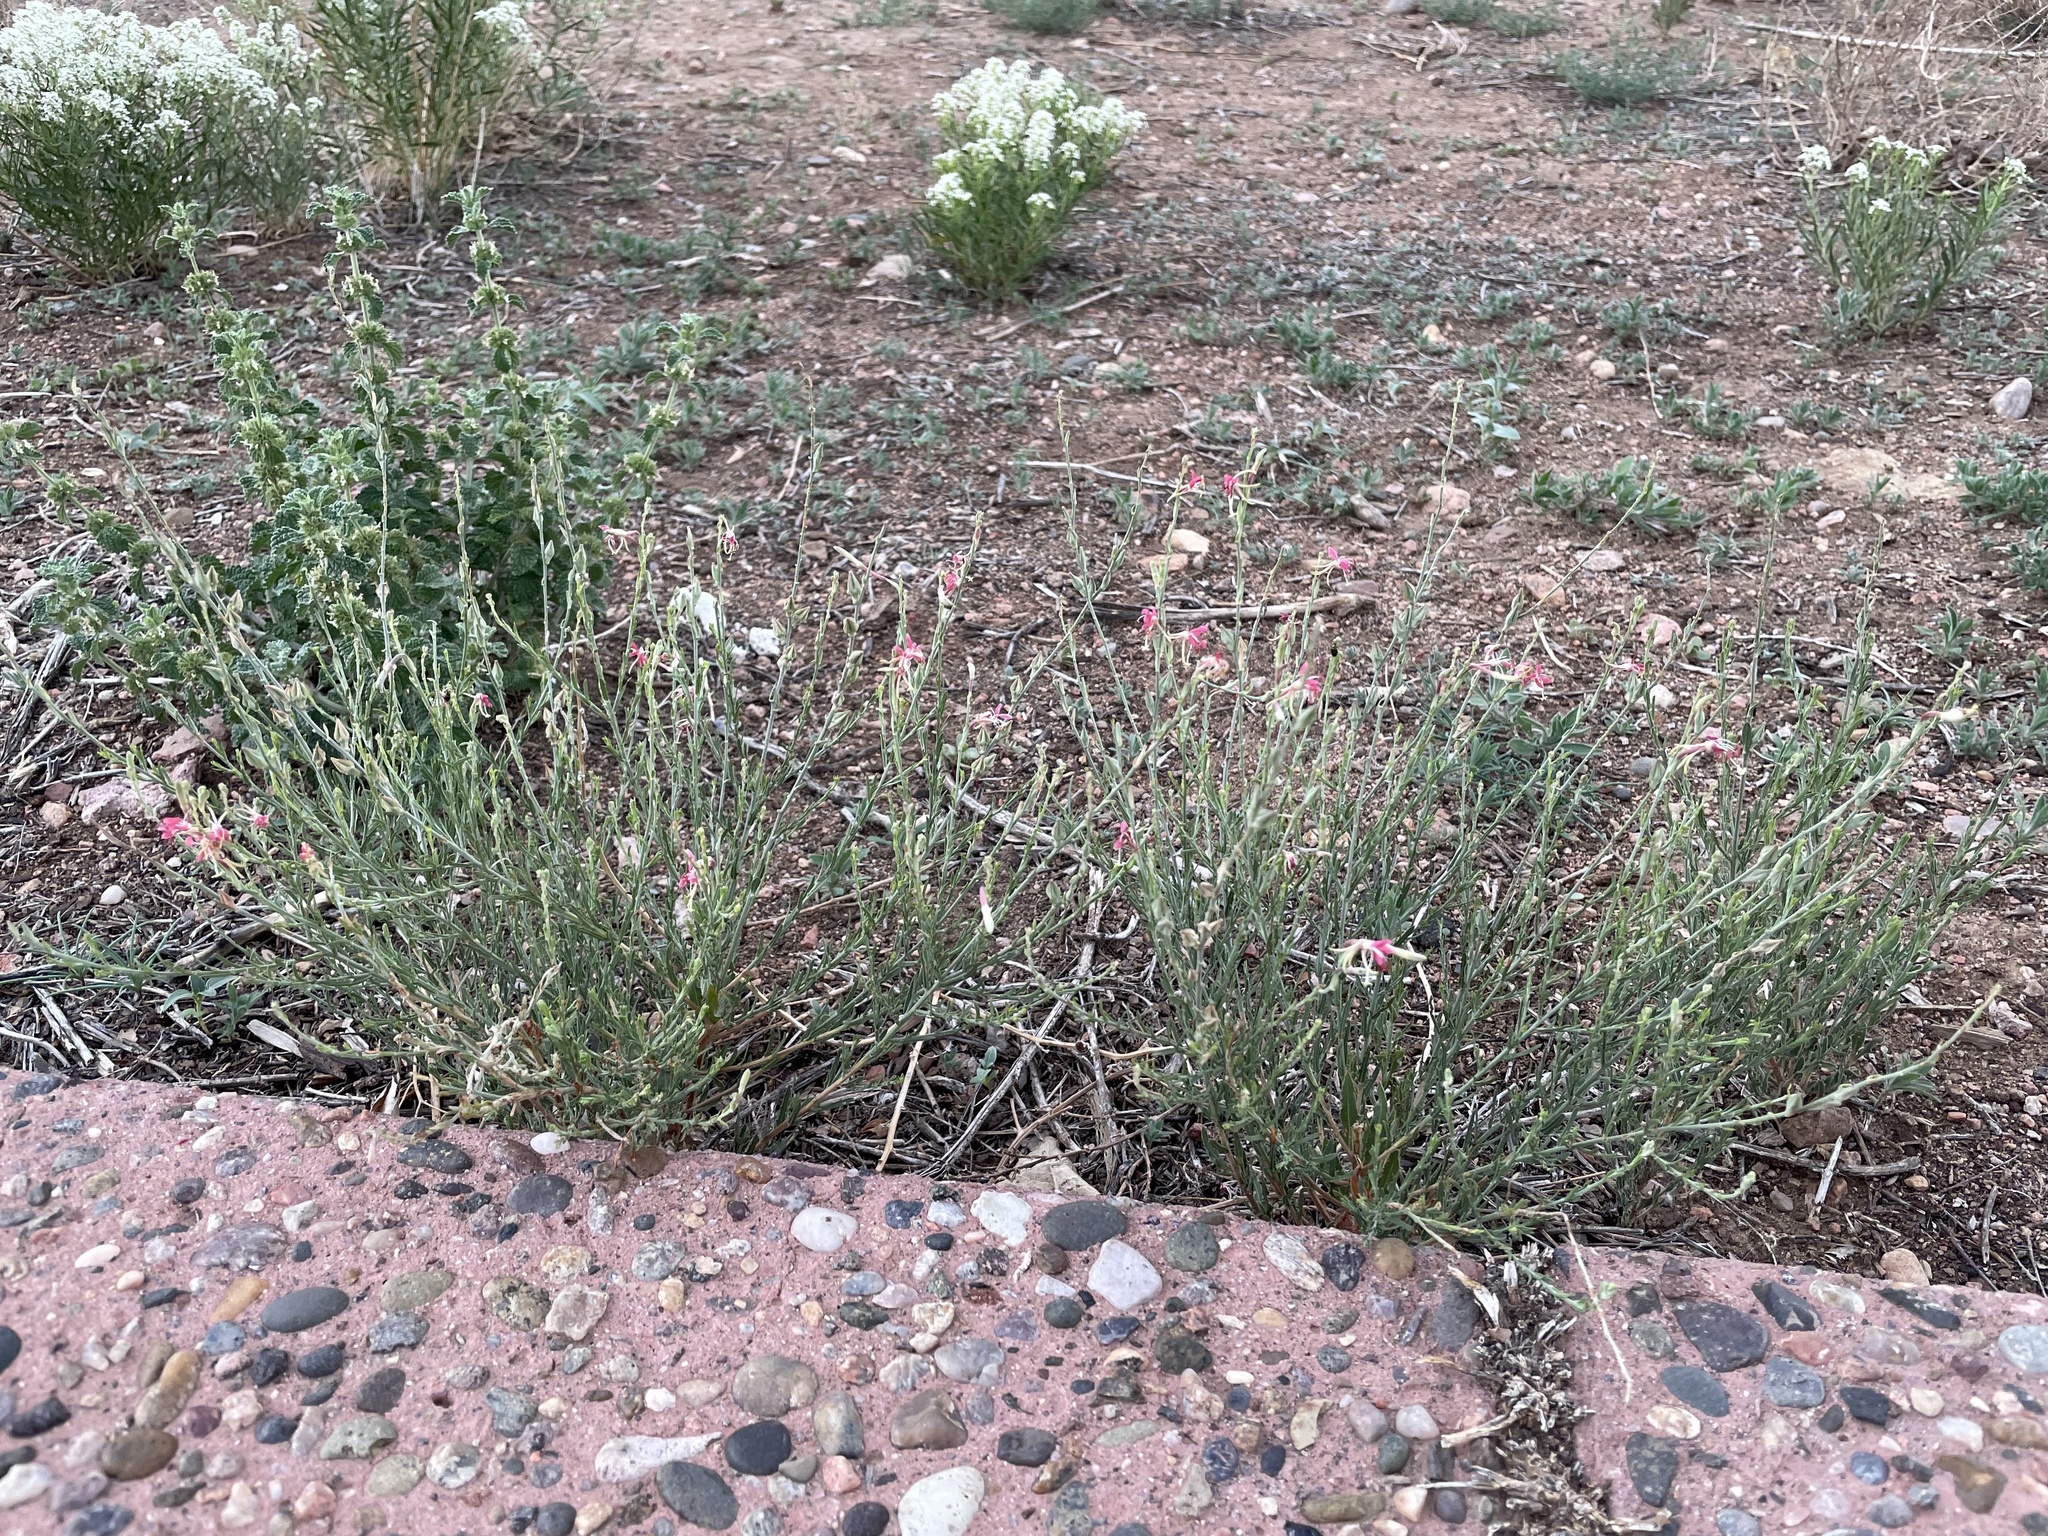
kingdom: Plantae
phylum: Tracheophyta
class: Magnoliopsida
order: Myrtales
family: Onagraceae
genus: Oenothera
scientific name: Oenothera suffrutescens
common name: Scarlet beeblossom
